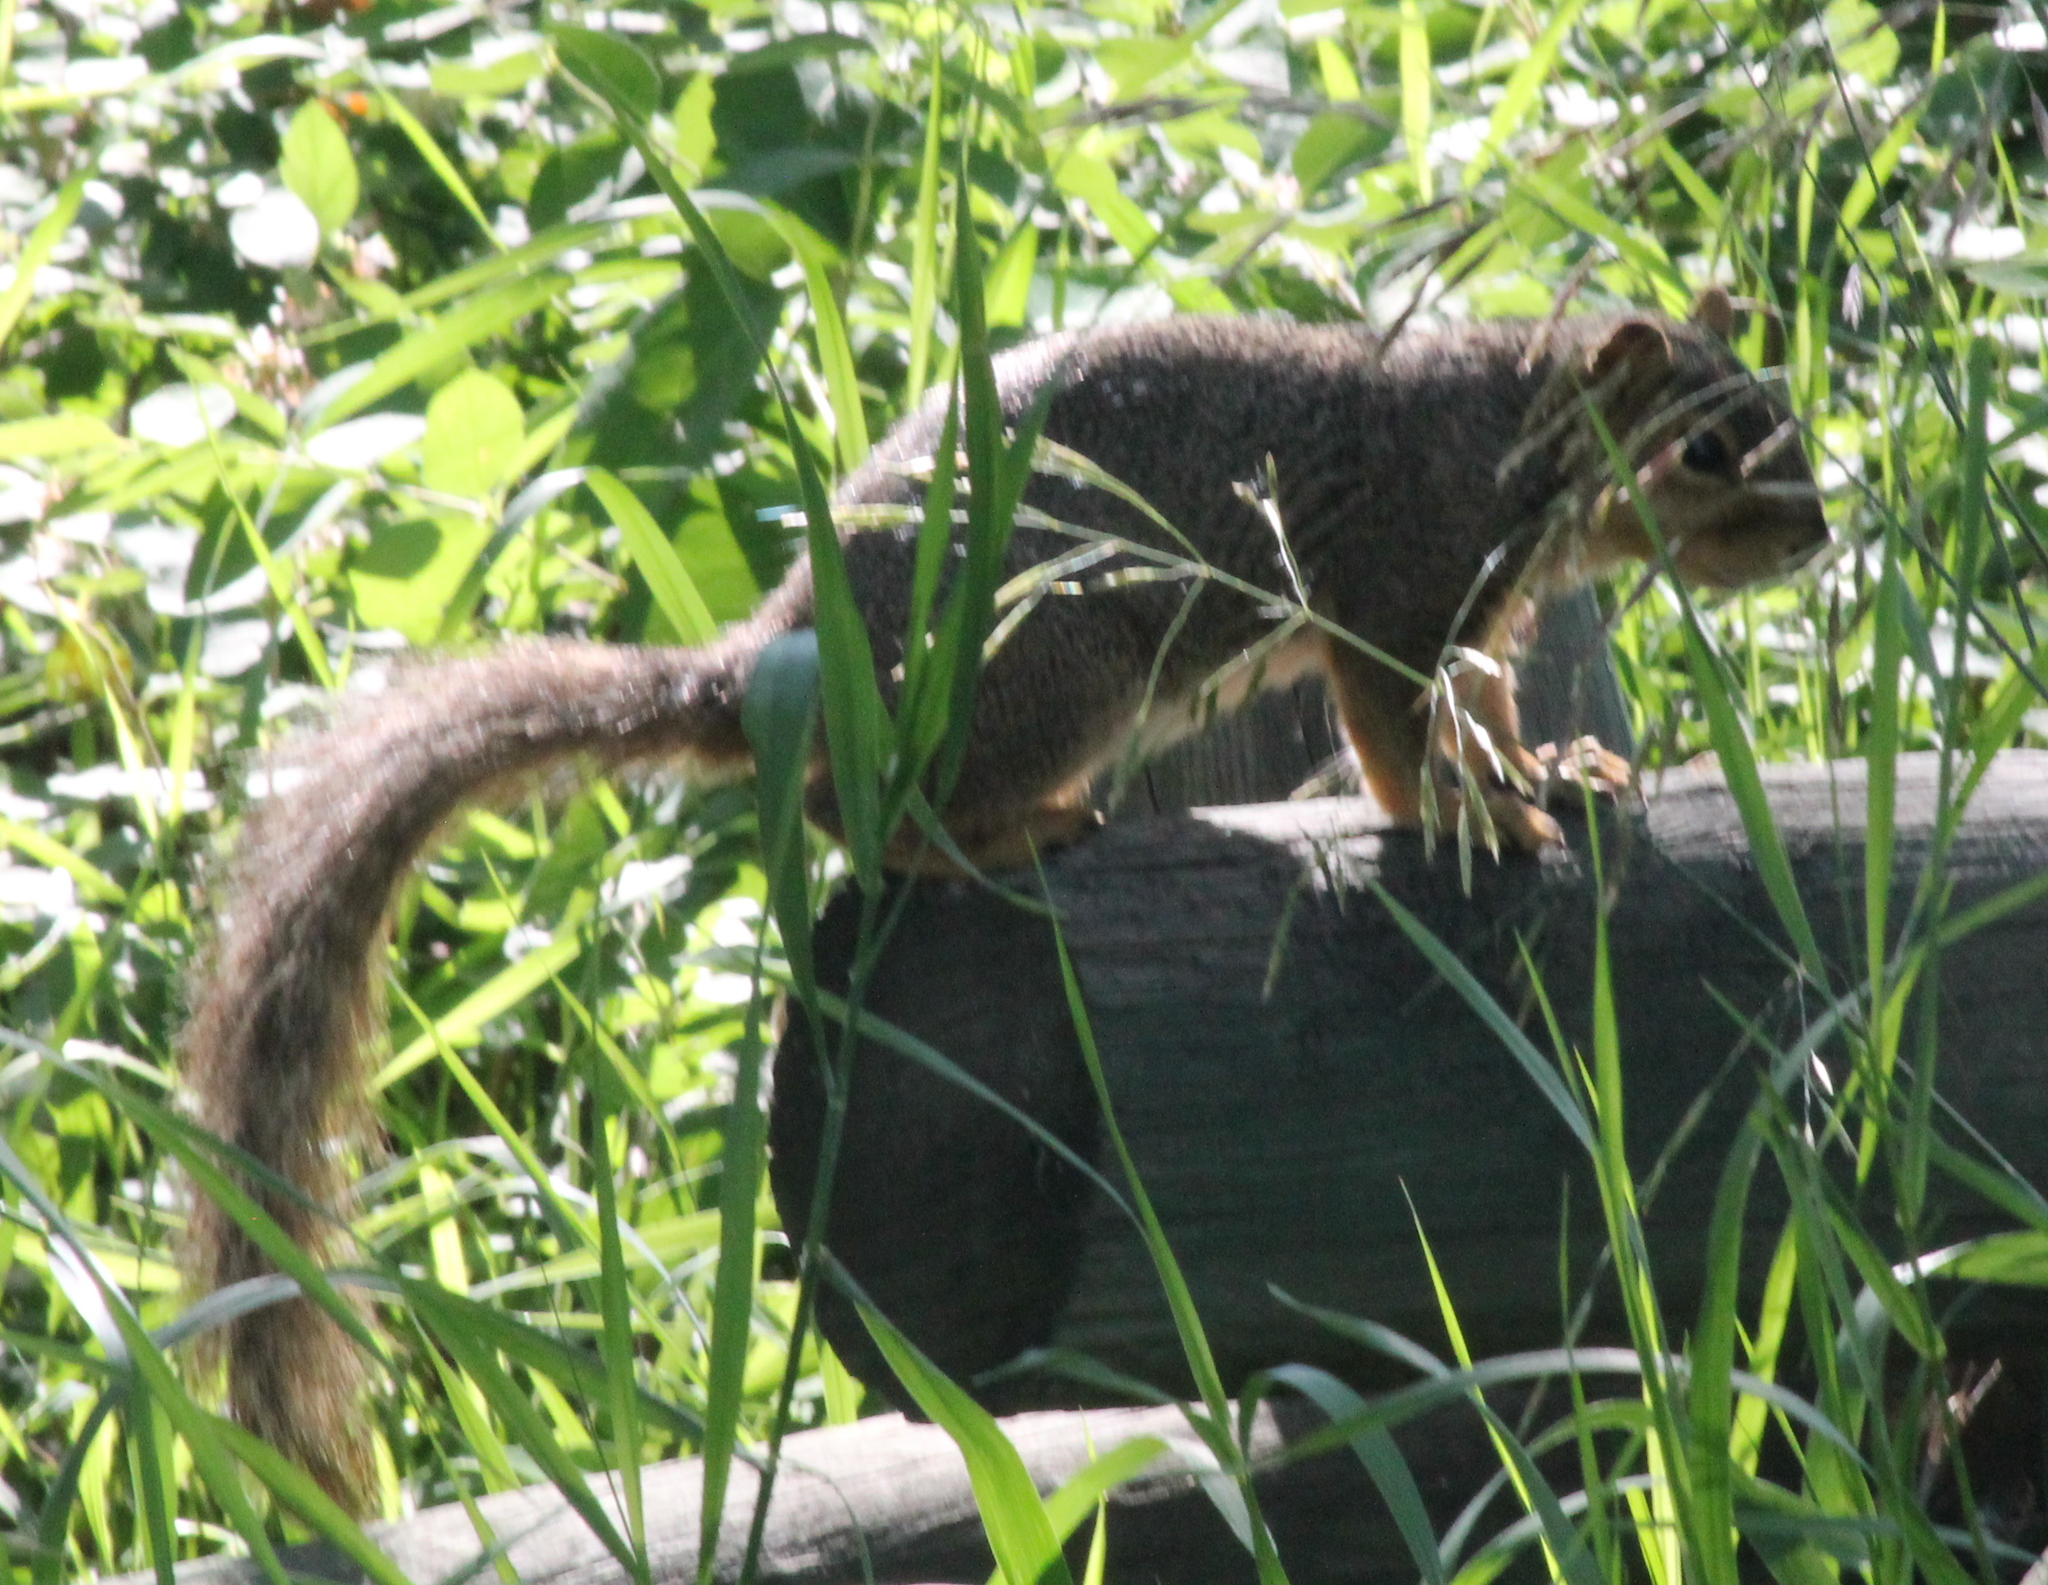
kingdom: Animalia
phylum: Chordata
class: Mammalia
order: Rodentia
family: Sciuridae
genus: Sciurus
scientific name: Sciurus niger
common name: Fox squirrel
